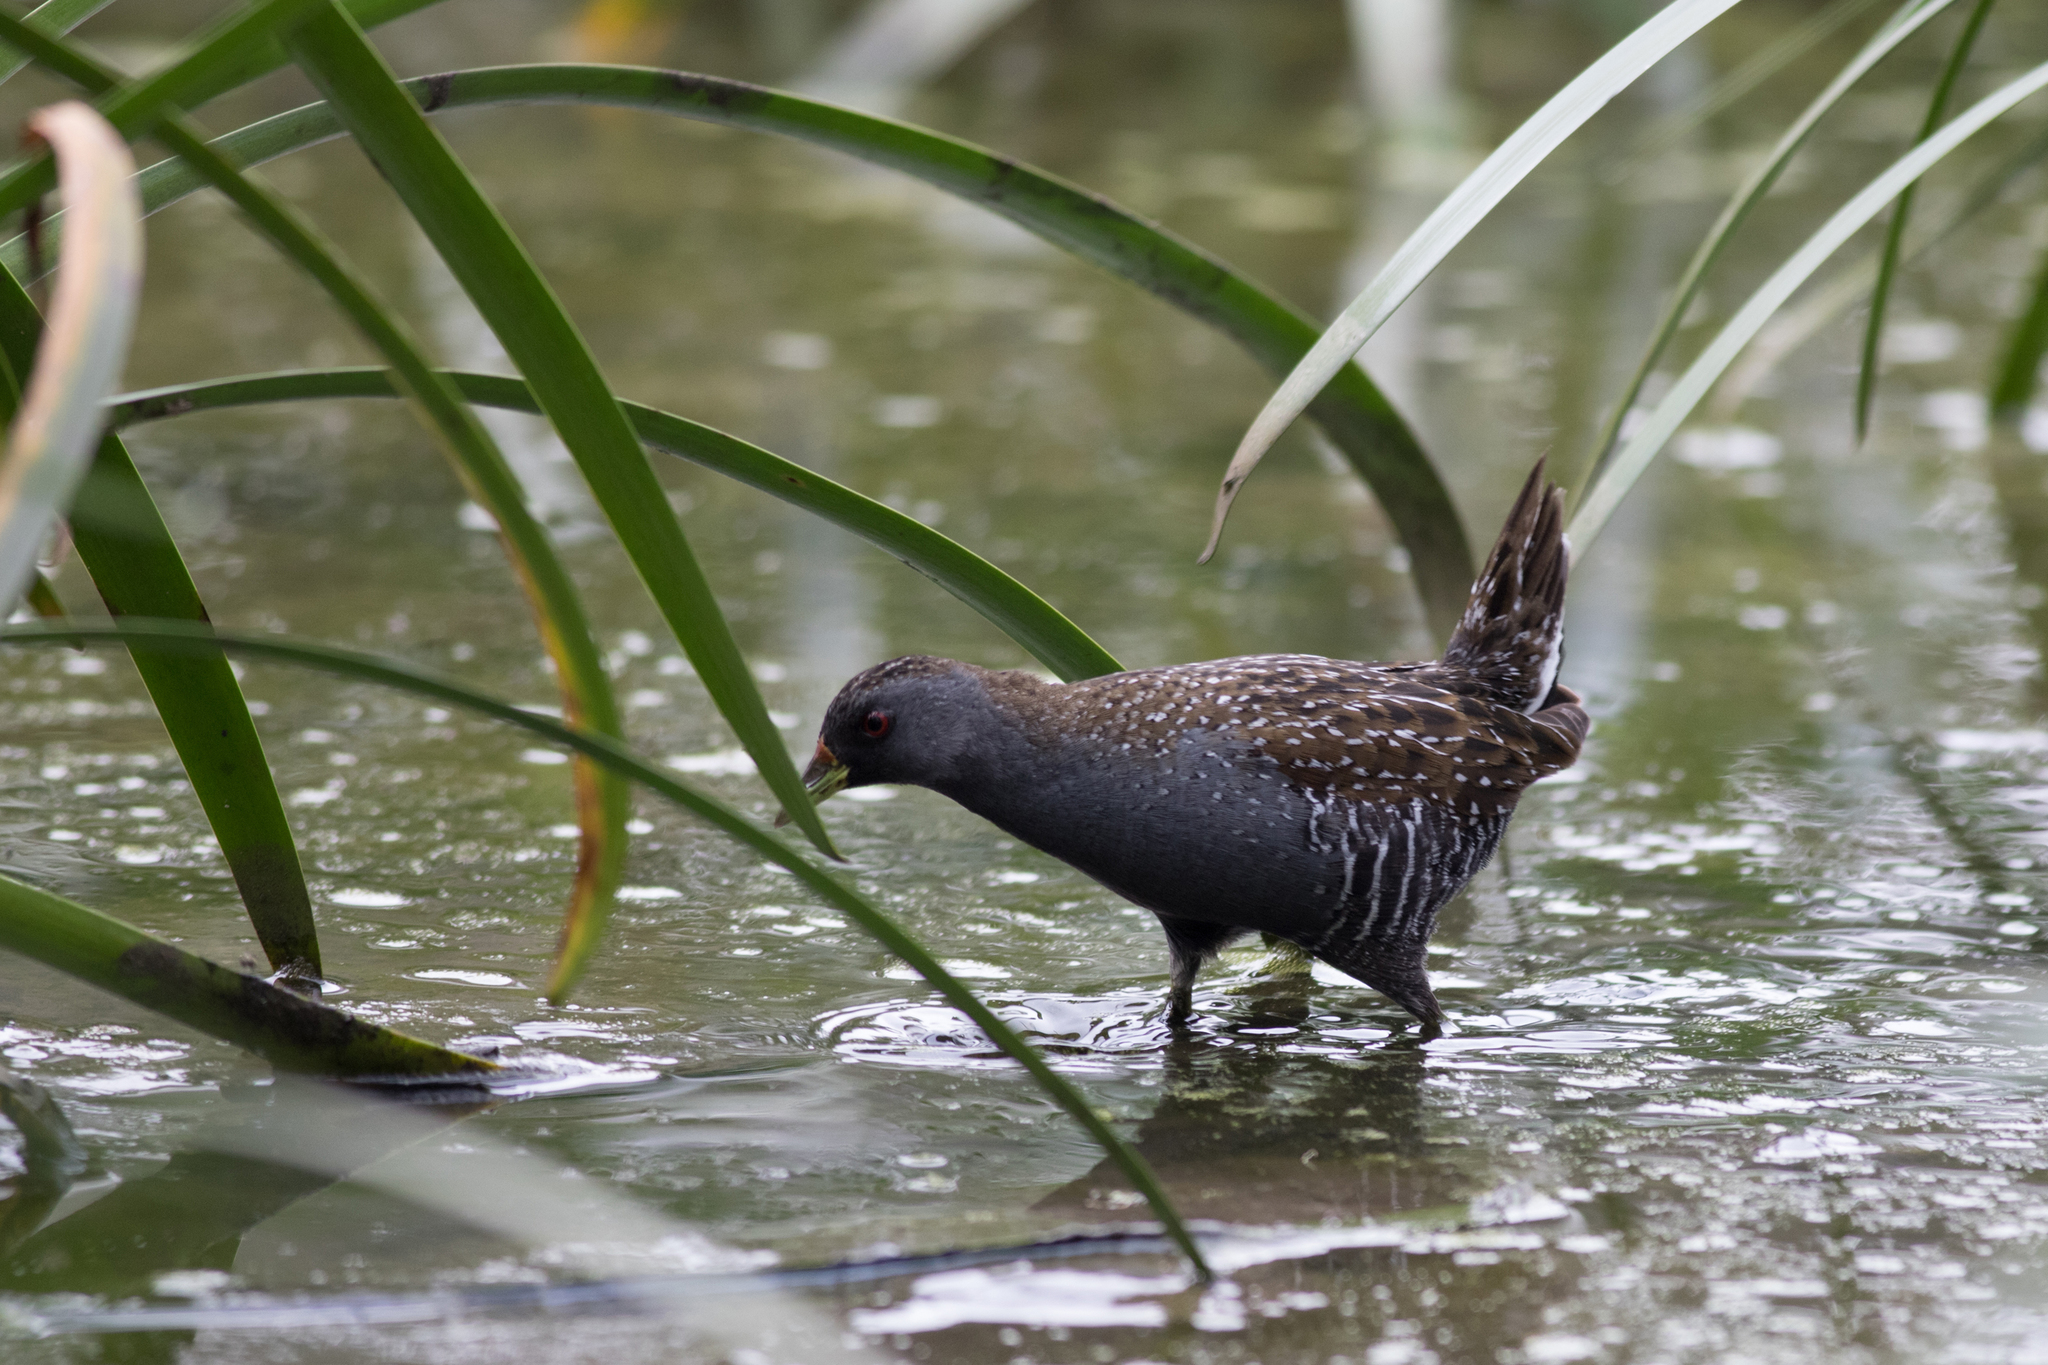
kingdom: Animalia
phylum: Chordata
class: Aves
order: Gruiformes
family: Rallidae
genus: Porzana
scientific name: Porzana fluminea
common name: Australian crake
